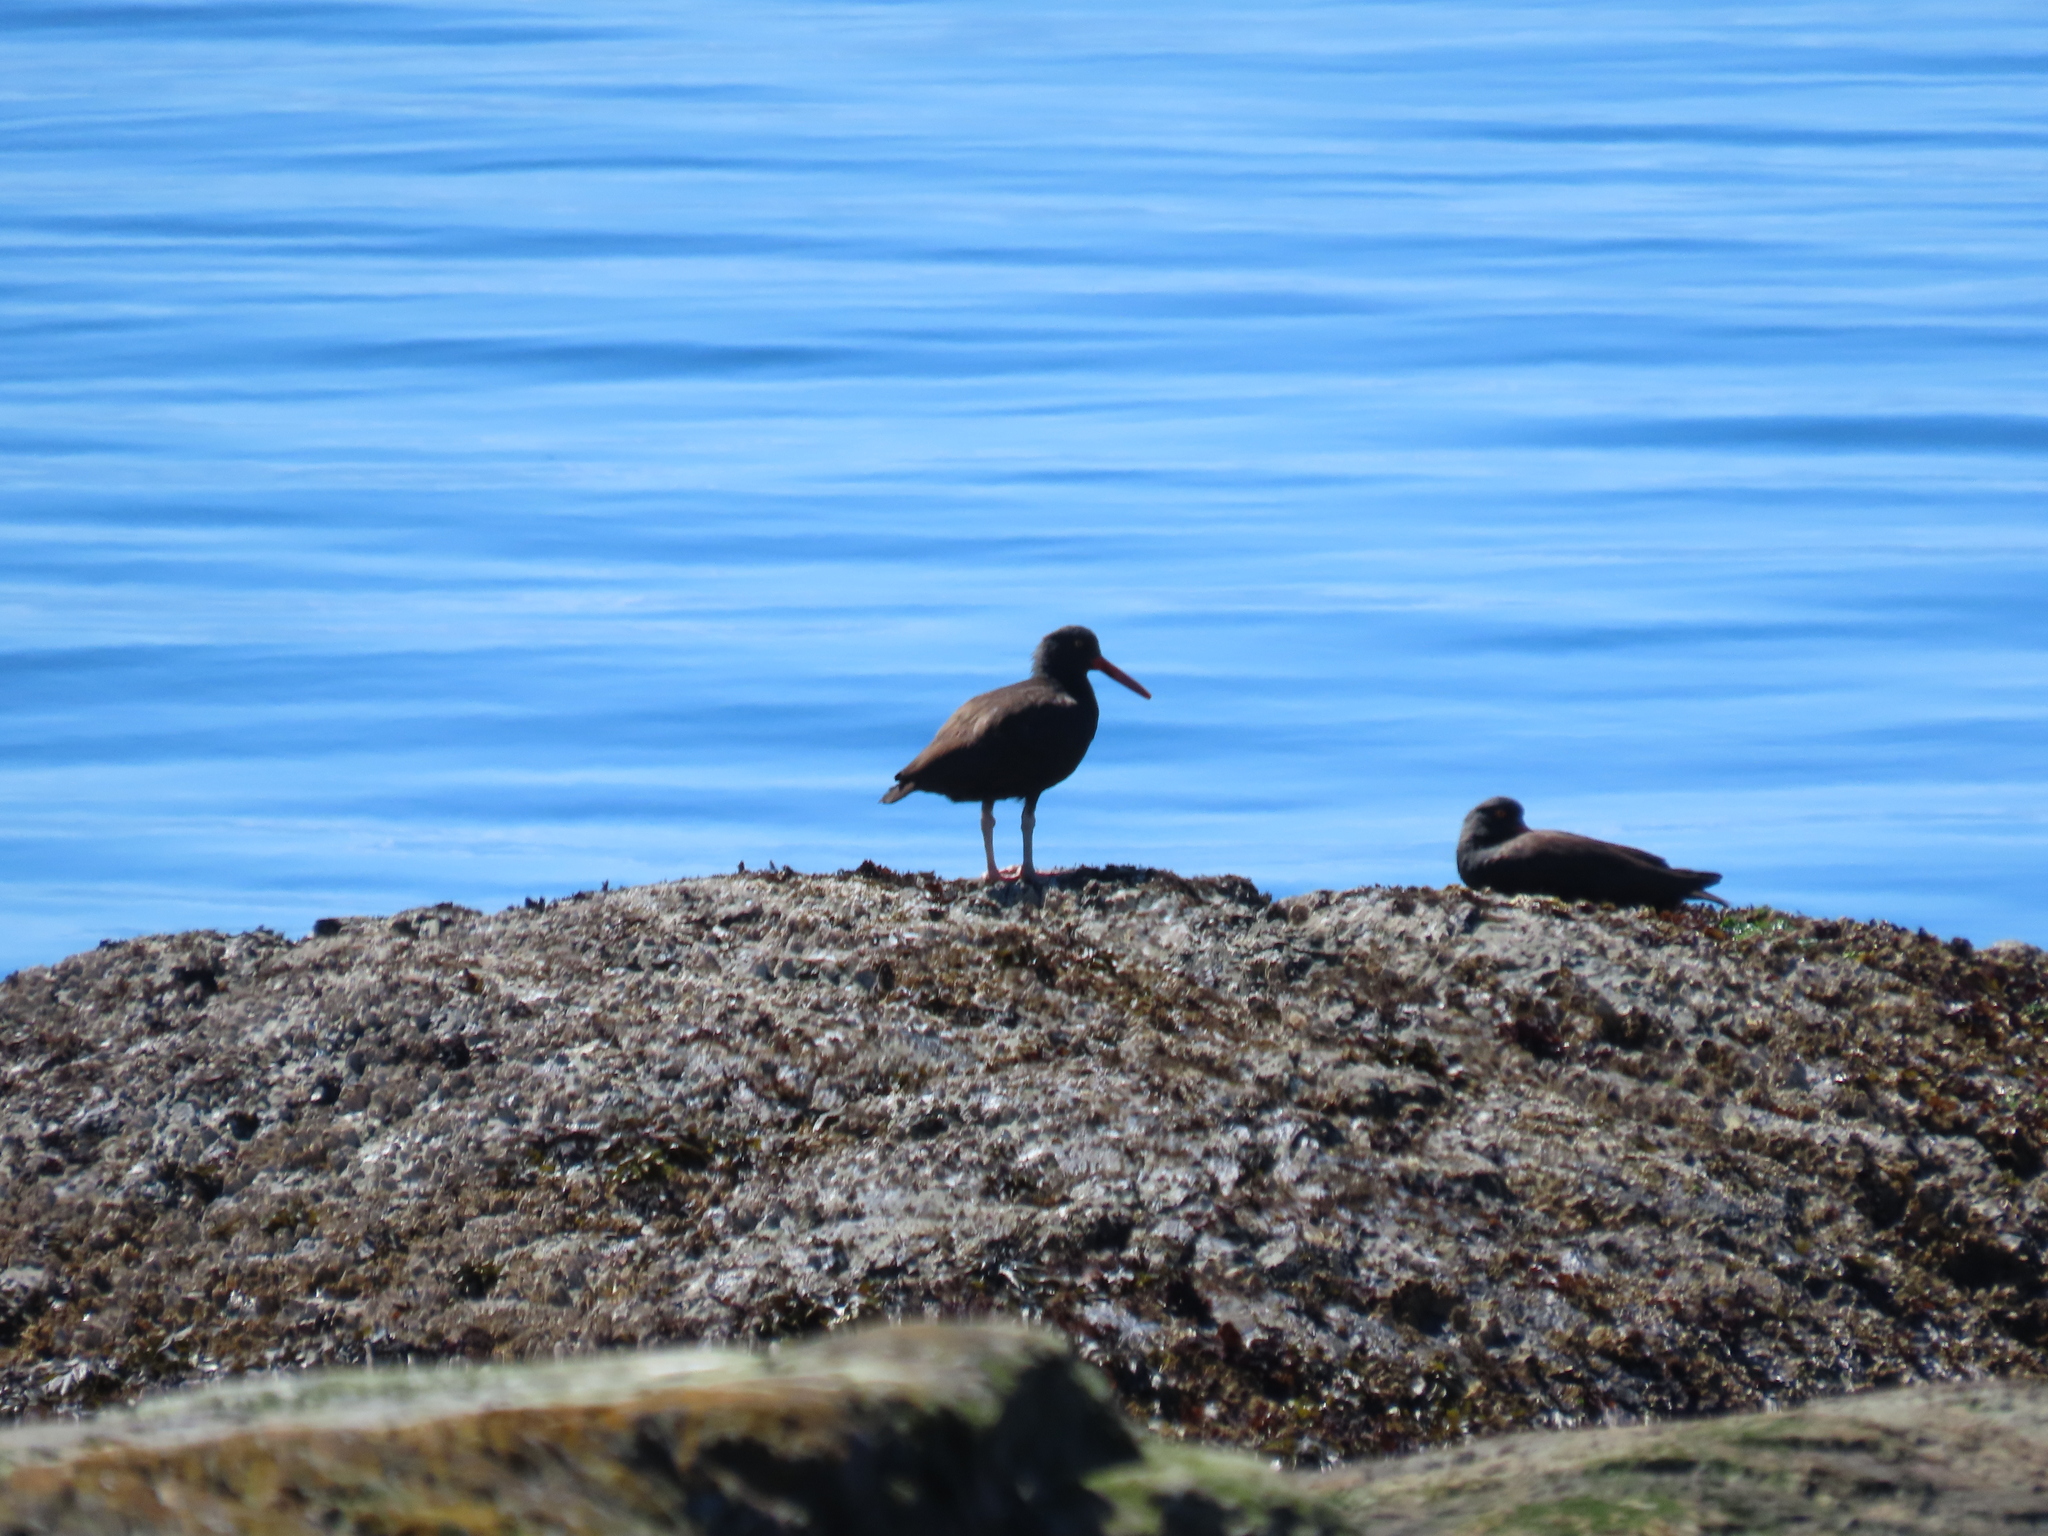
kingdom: Animalia
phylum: Chordata
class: Aves
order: Charadriiformes
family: Haematopodidae
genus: Haematopus
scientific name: Haematopus bachmani
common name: Black oystercatcher
